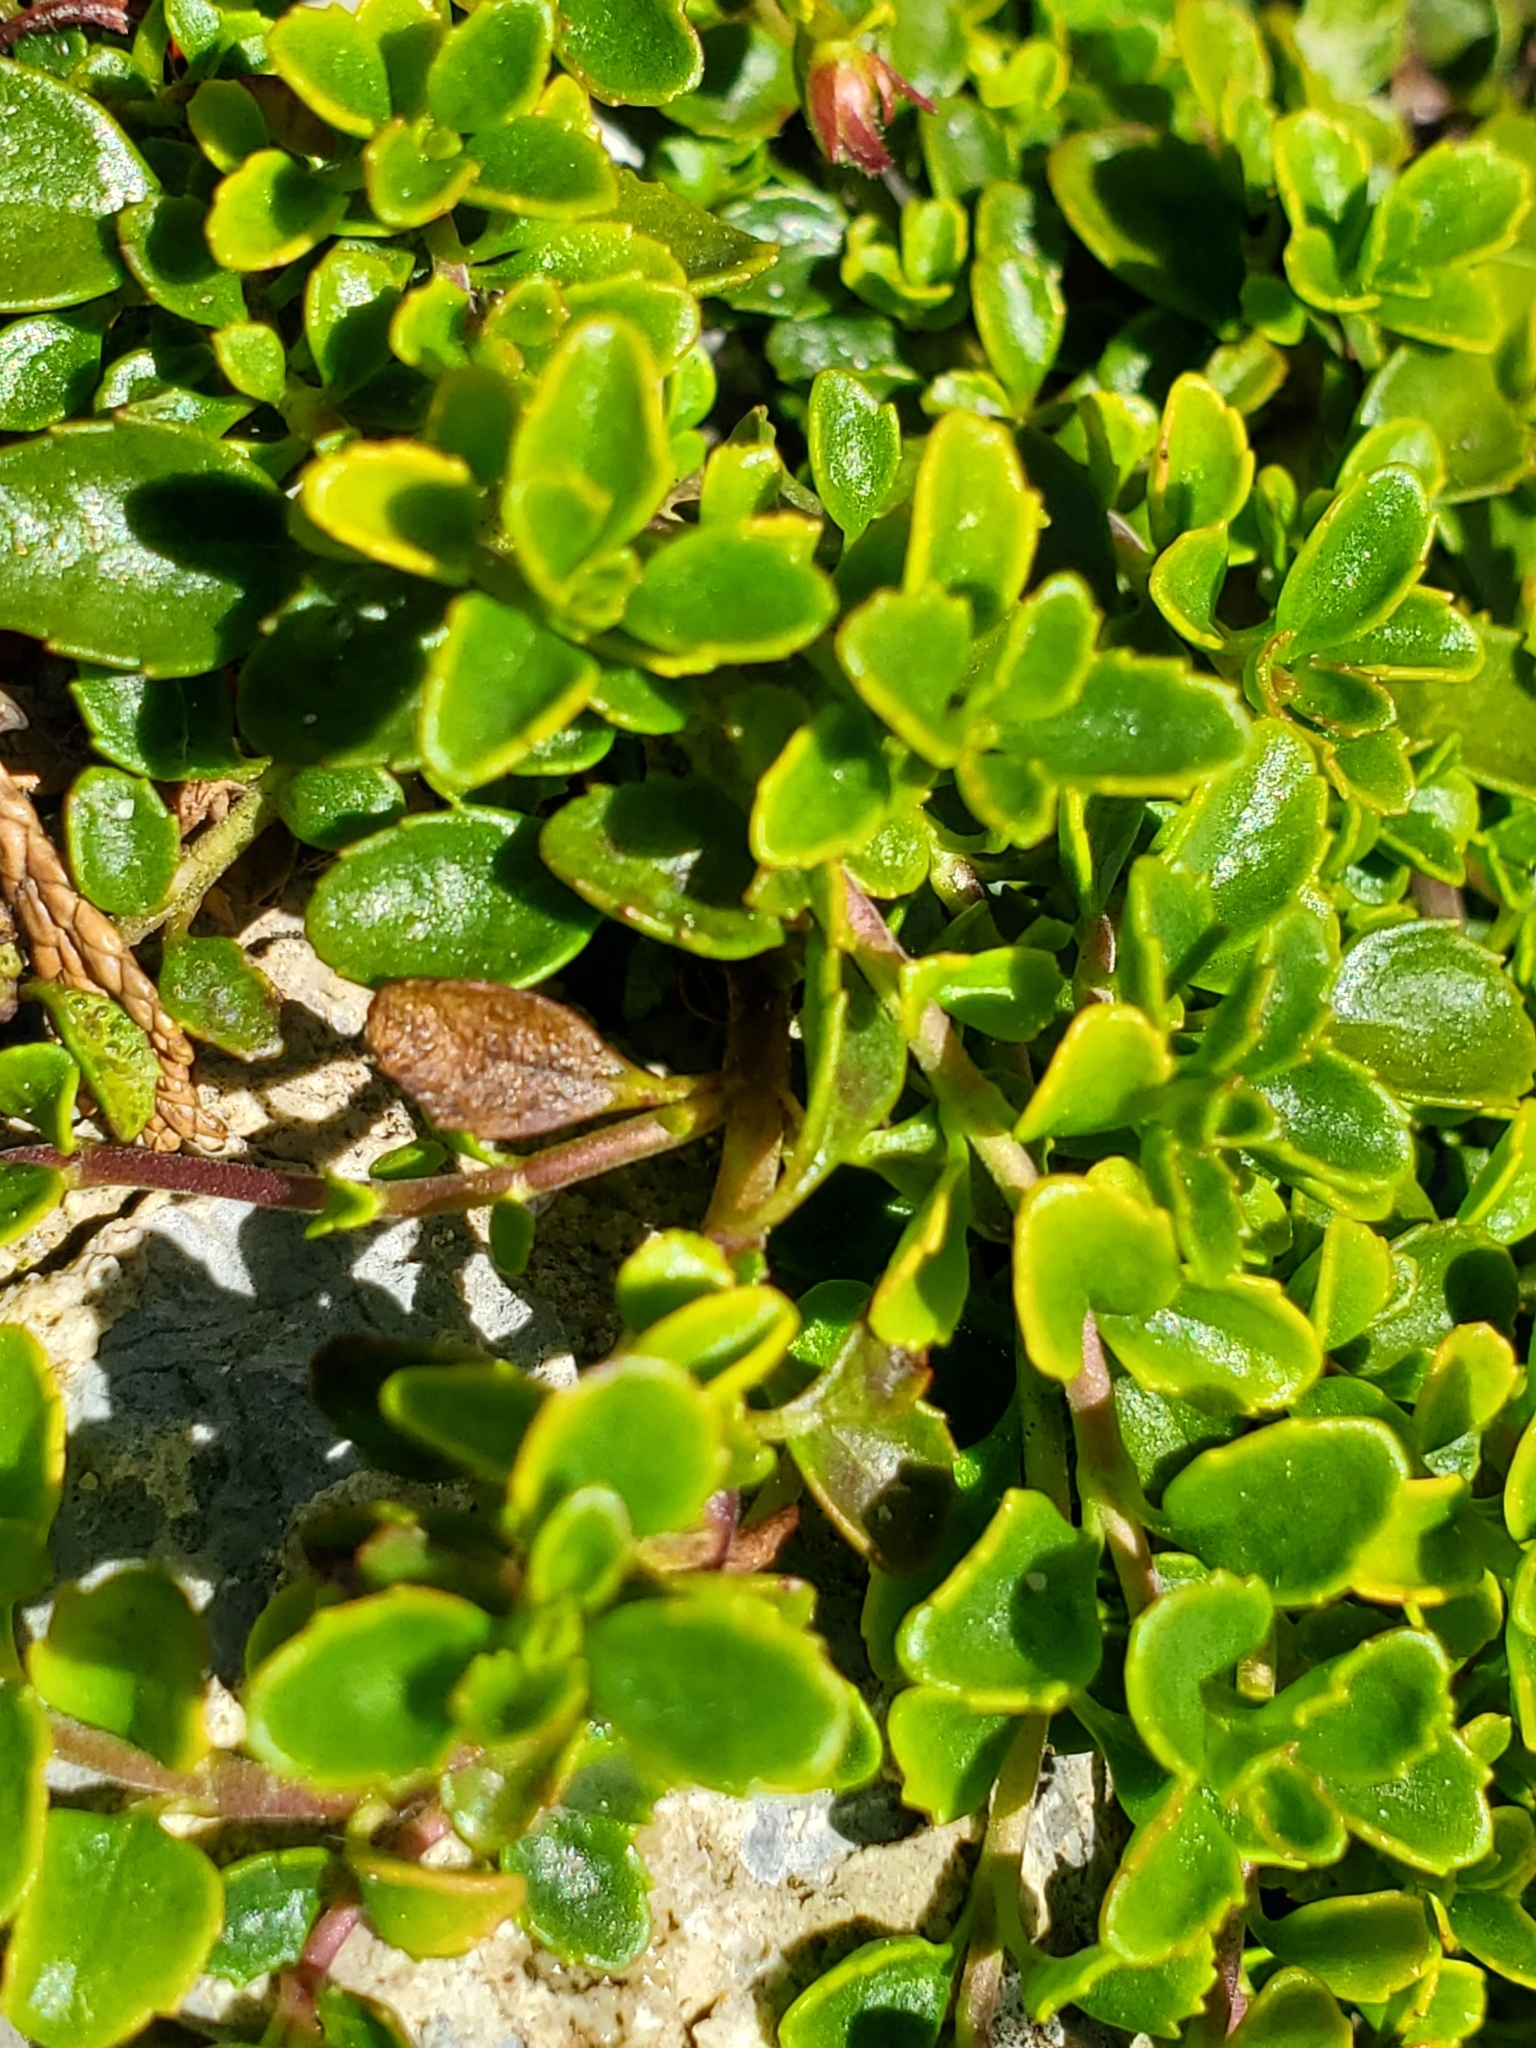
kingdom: Plantae
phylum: Tracheophyta
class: Magnoliopsida
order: Lamiales
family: Plantaginaceae
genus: Penstemon
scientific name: Penstemon davidsonii
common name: Davidson's penstemon
